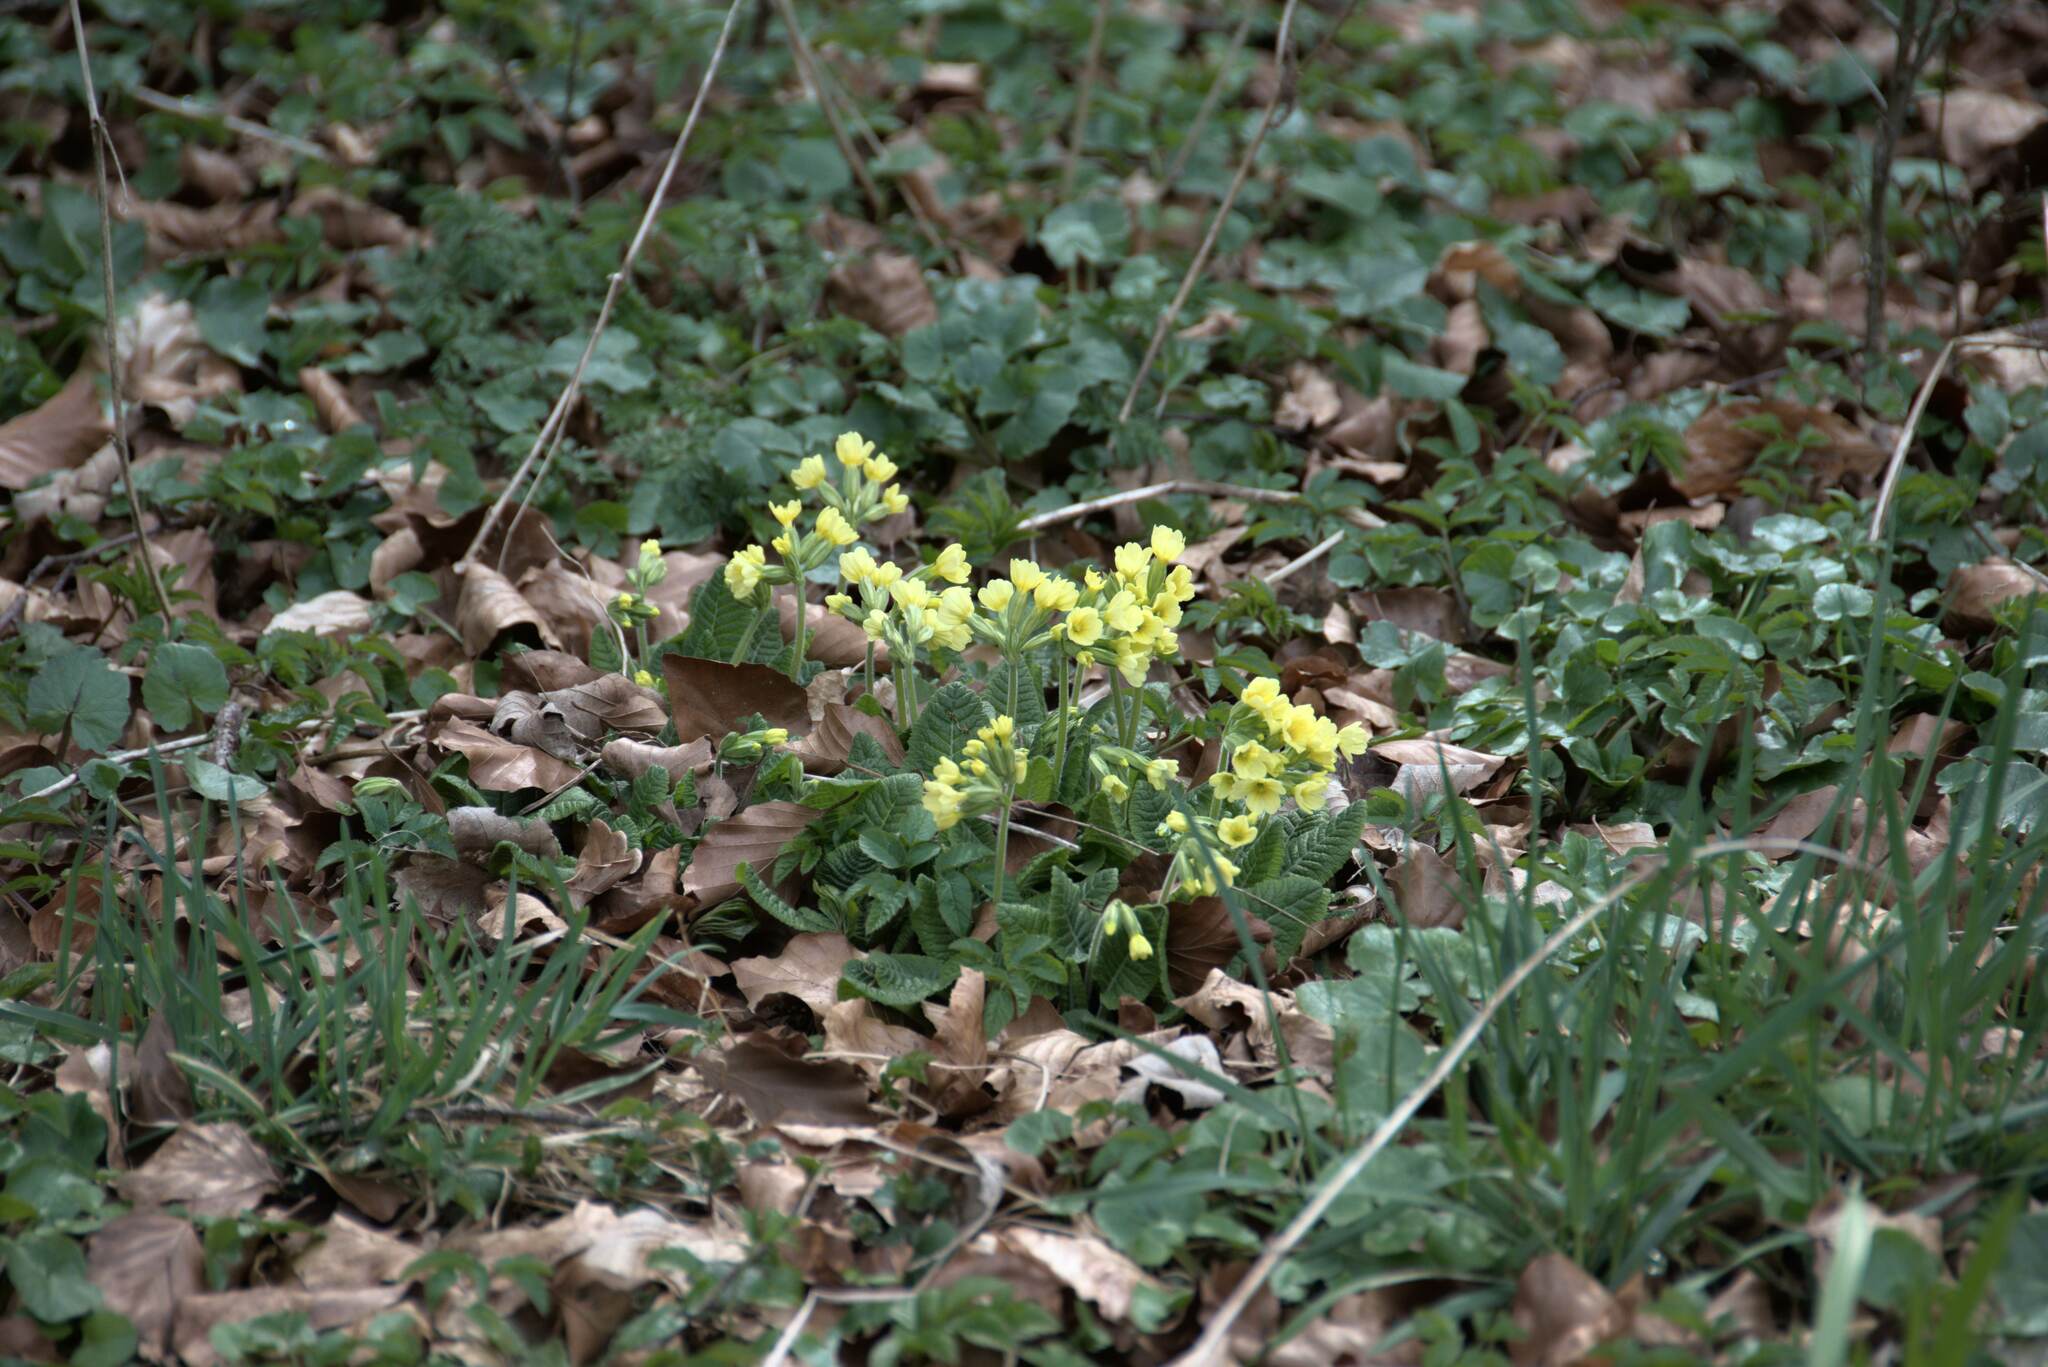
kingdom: Plantae
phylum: Tracheophyta
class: Magnoliopsida
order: Ericales
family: Primulaceae
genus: Primula
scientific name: Primula elatior
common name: Oxlip
